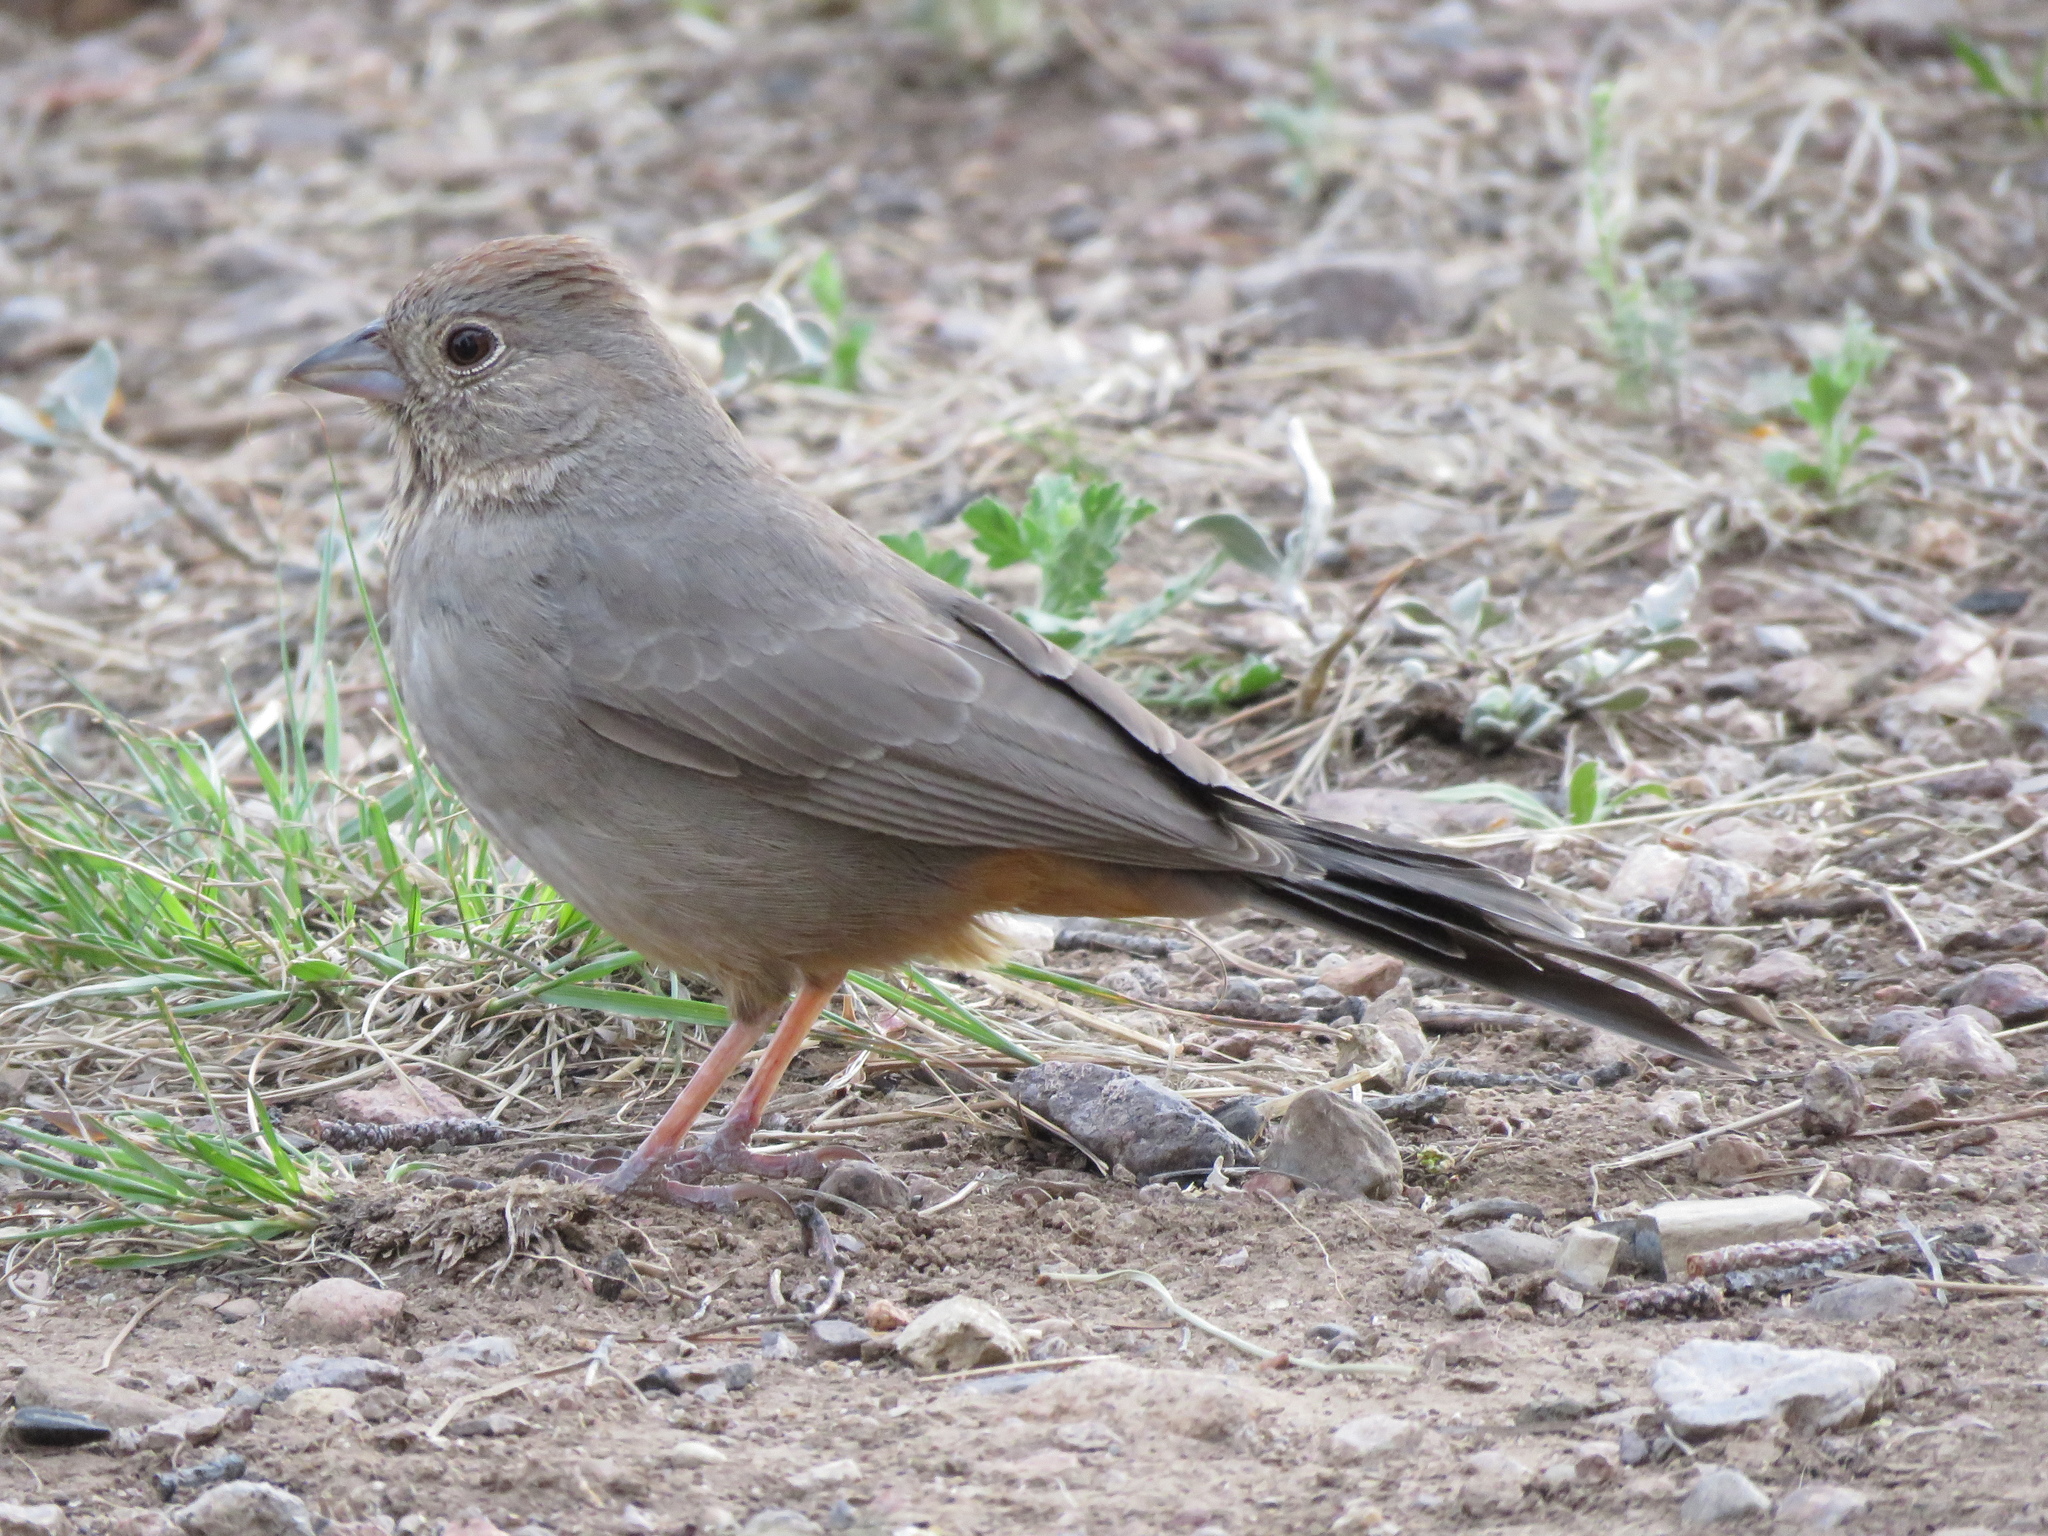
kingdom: Animalia
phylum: Chordata
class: Aves
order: Passeriformes
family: Passerellidae
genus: Melozone
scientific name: Melozone fusca
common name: Canyon towhee
